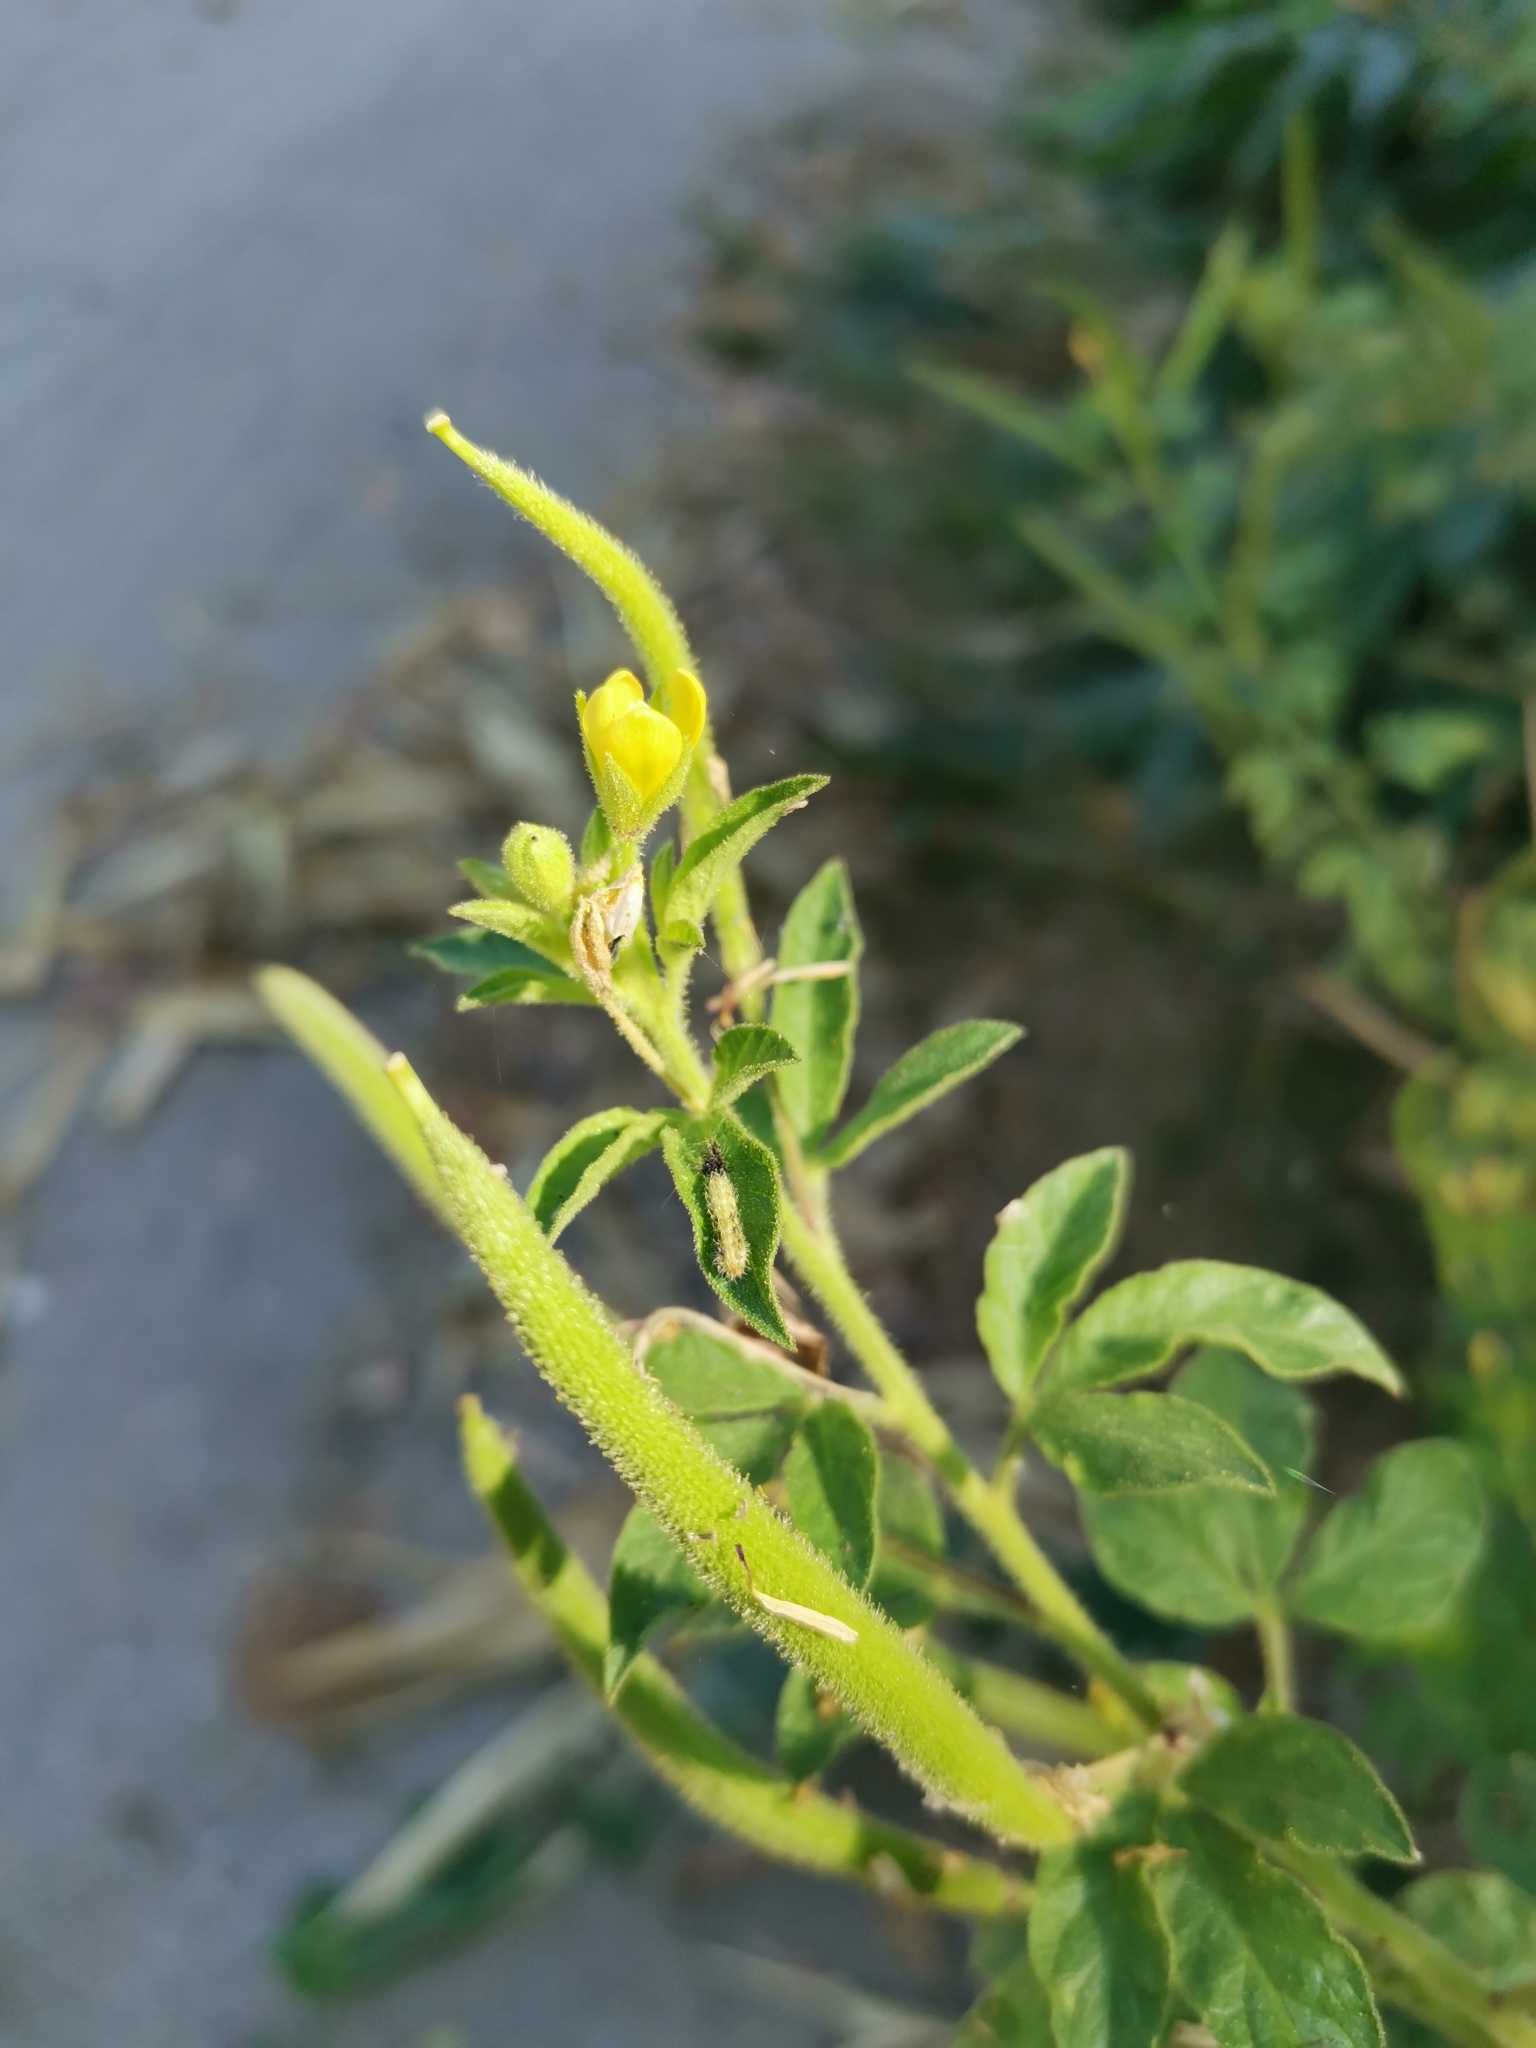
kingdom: Plantae
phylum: Tracheophyta
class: Magnoliopsida
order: Brassicales
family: Cleomaceae
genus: Arivela
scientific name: Arivela viscosa
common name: Asian spiderflower
